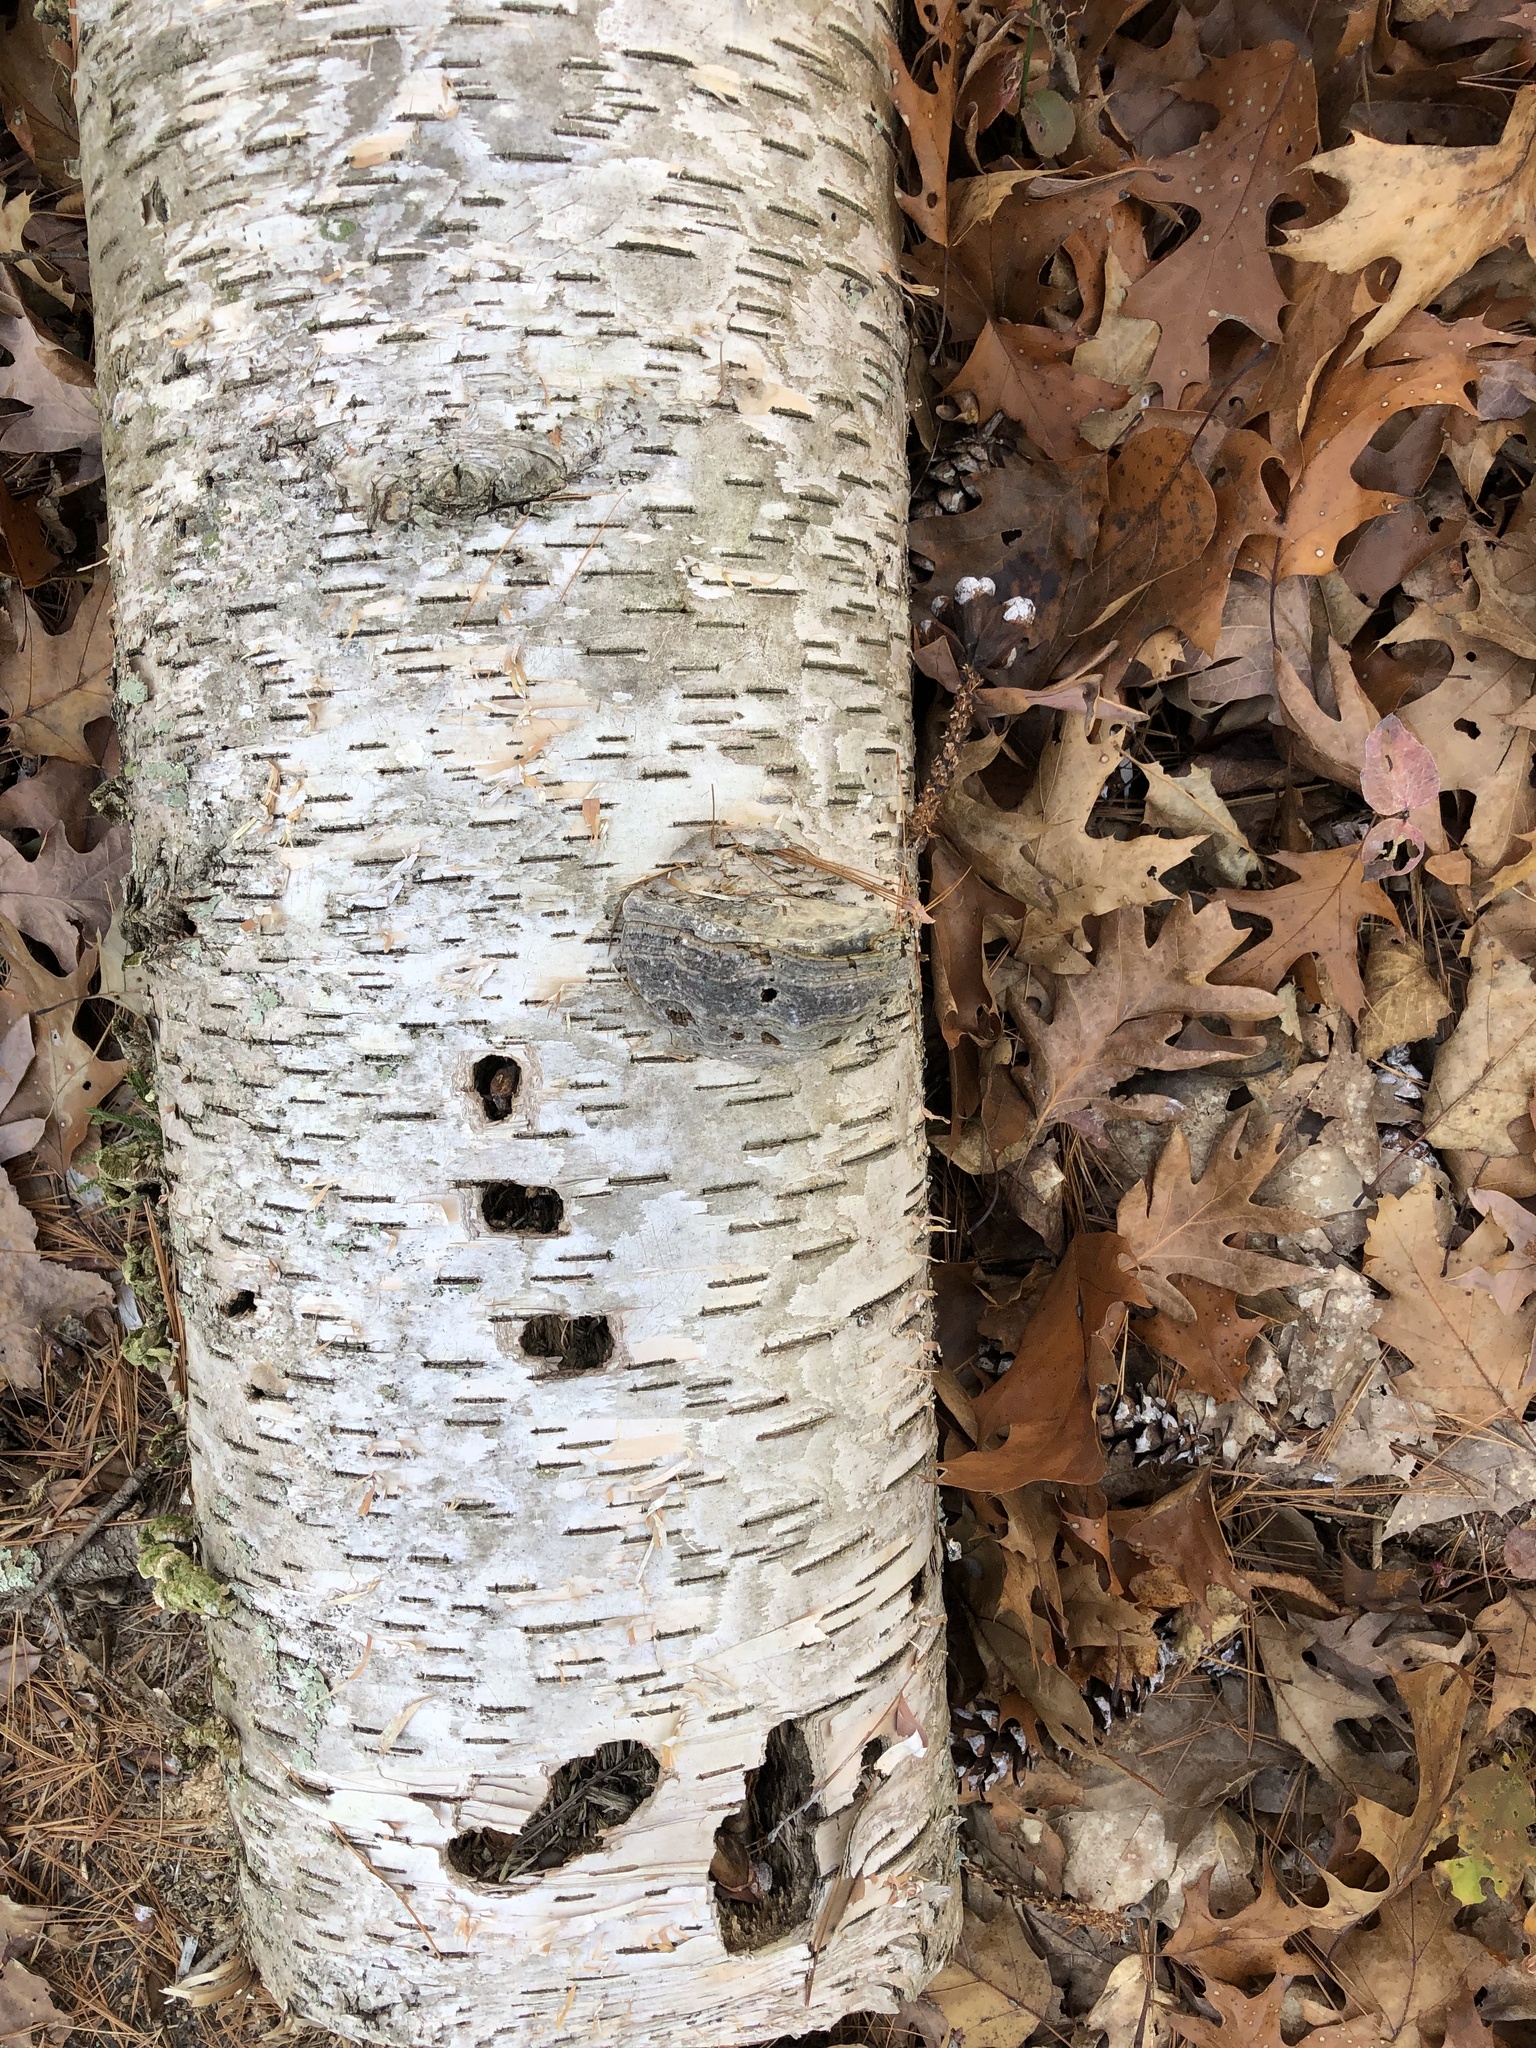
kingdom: Plantae
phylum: Tracheophyta
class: Magnoliopsida
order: Fagales
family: Betulaceae
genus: Betula
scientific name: Betula papyrifera
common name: Paper birch
